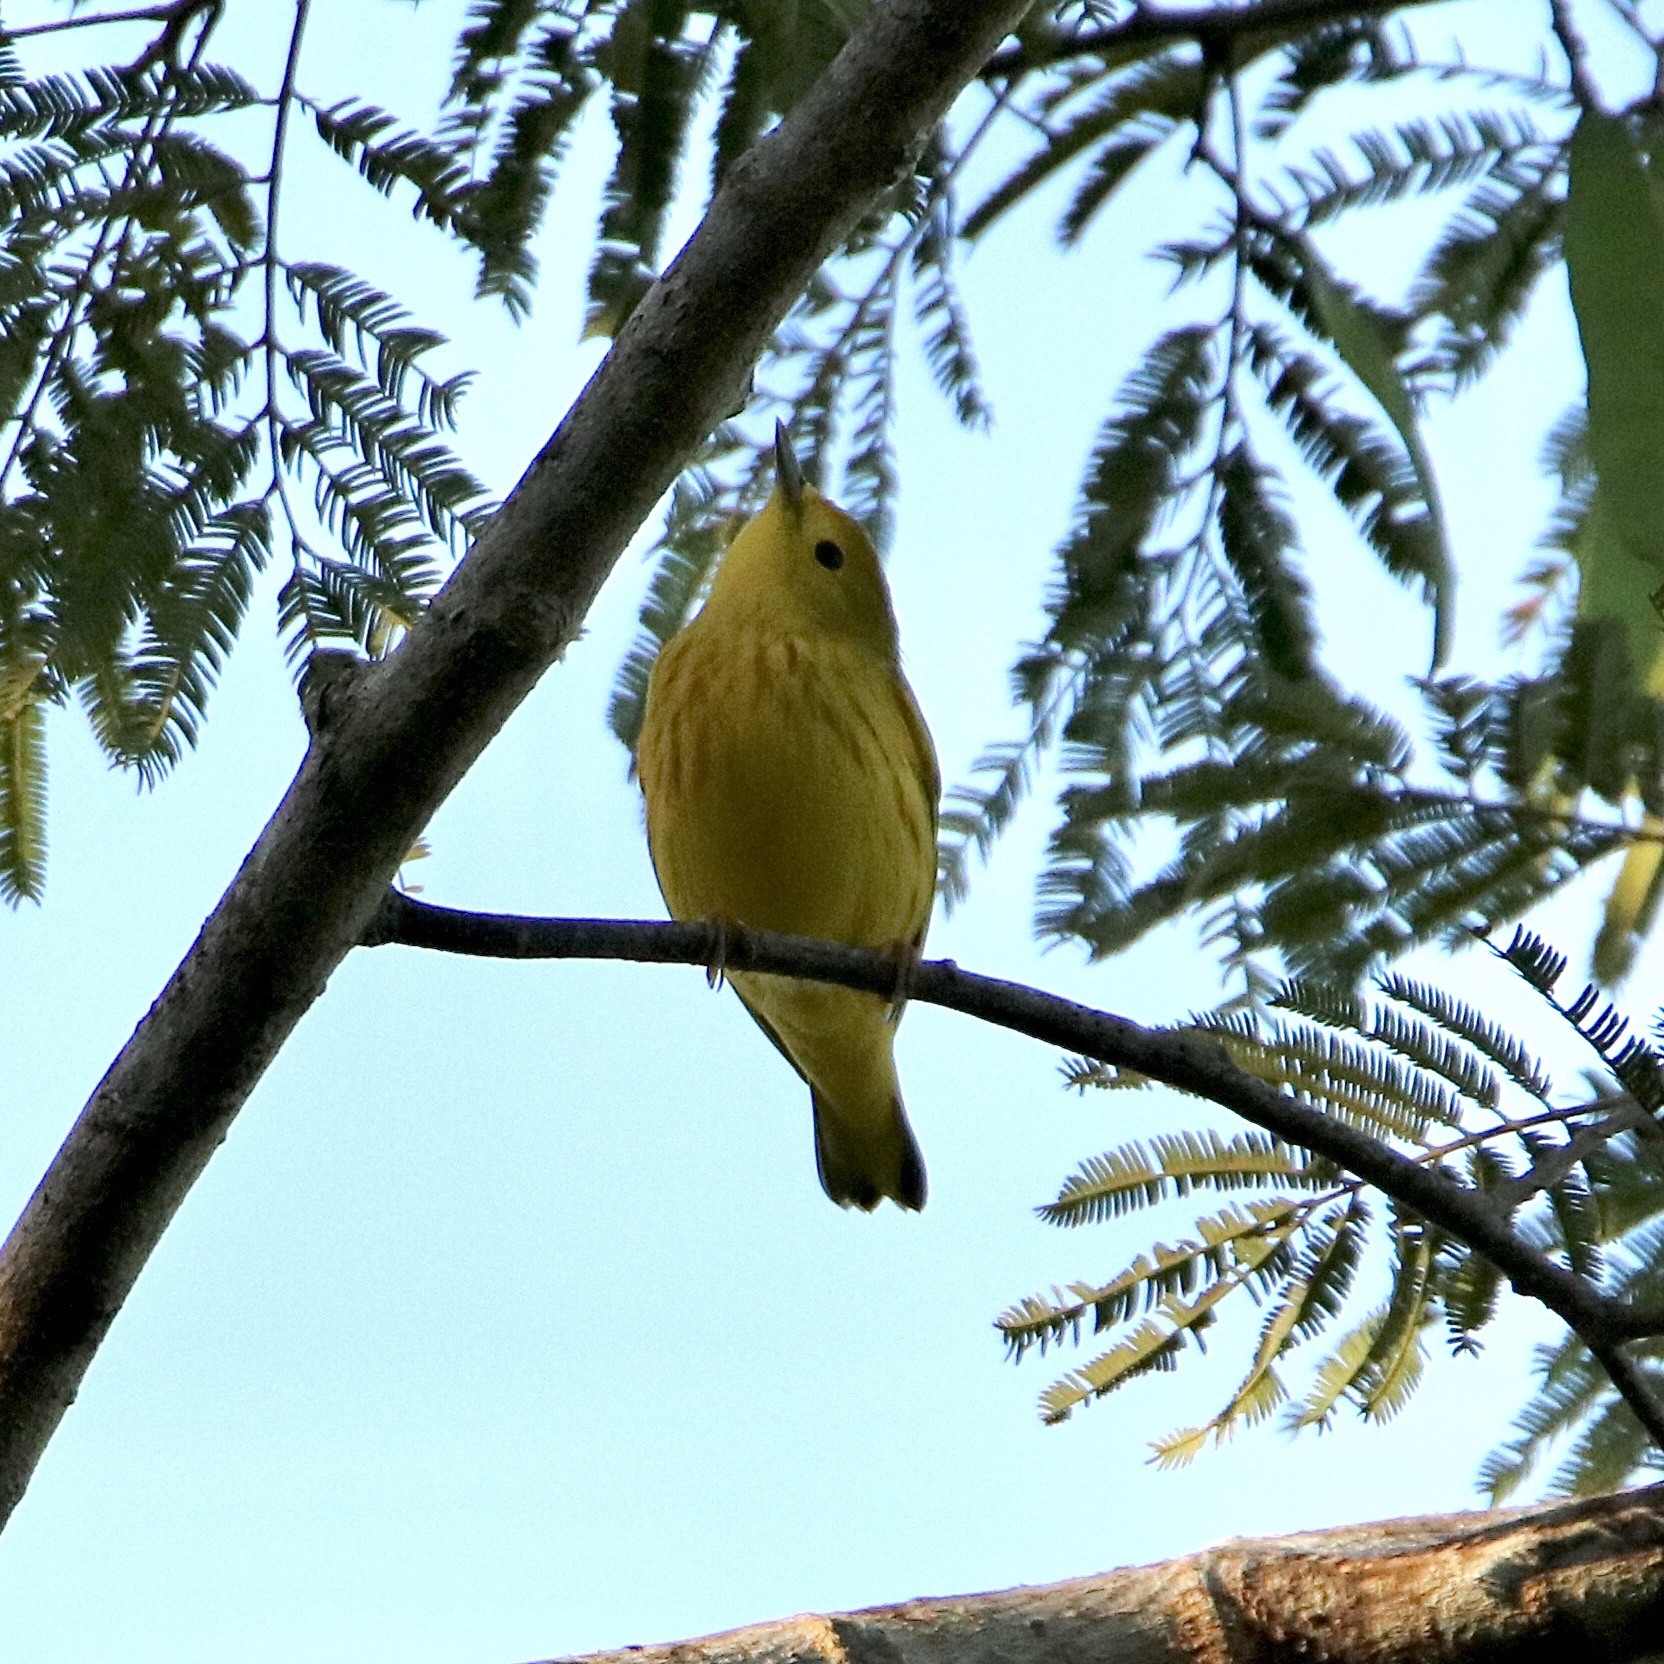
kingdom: Animalia
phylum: Chordata
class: Aves
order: Passeriformes
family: Parulidae
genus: Setophaga
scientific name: Setophaga petechia
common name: Yellow warbler
